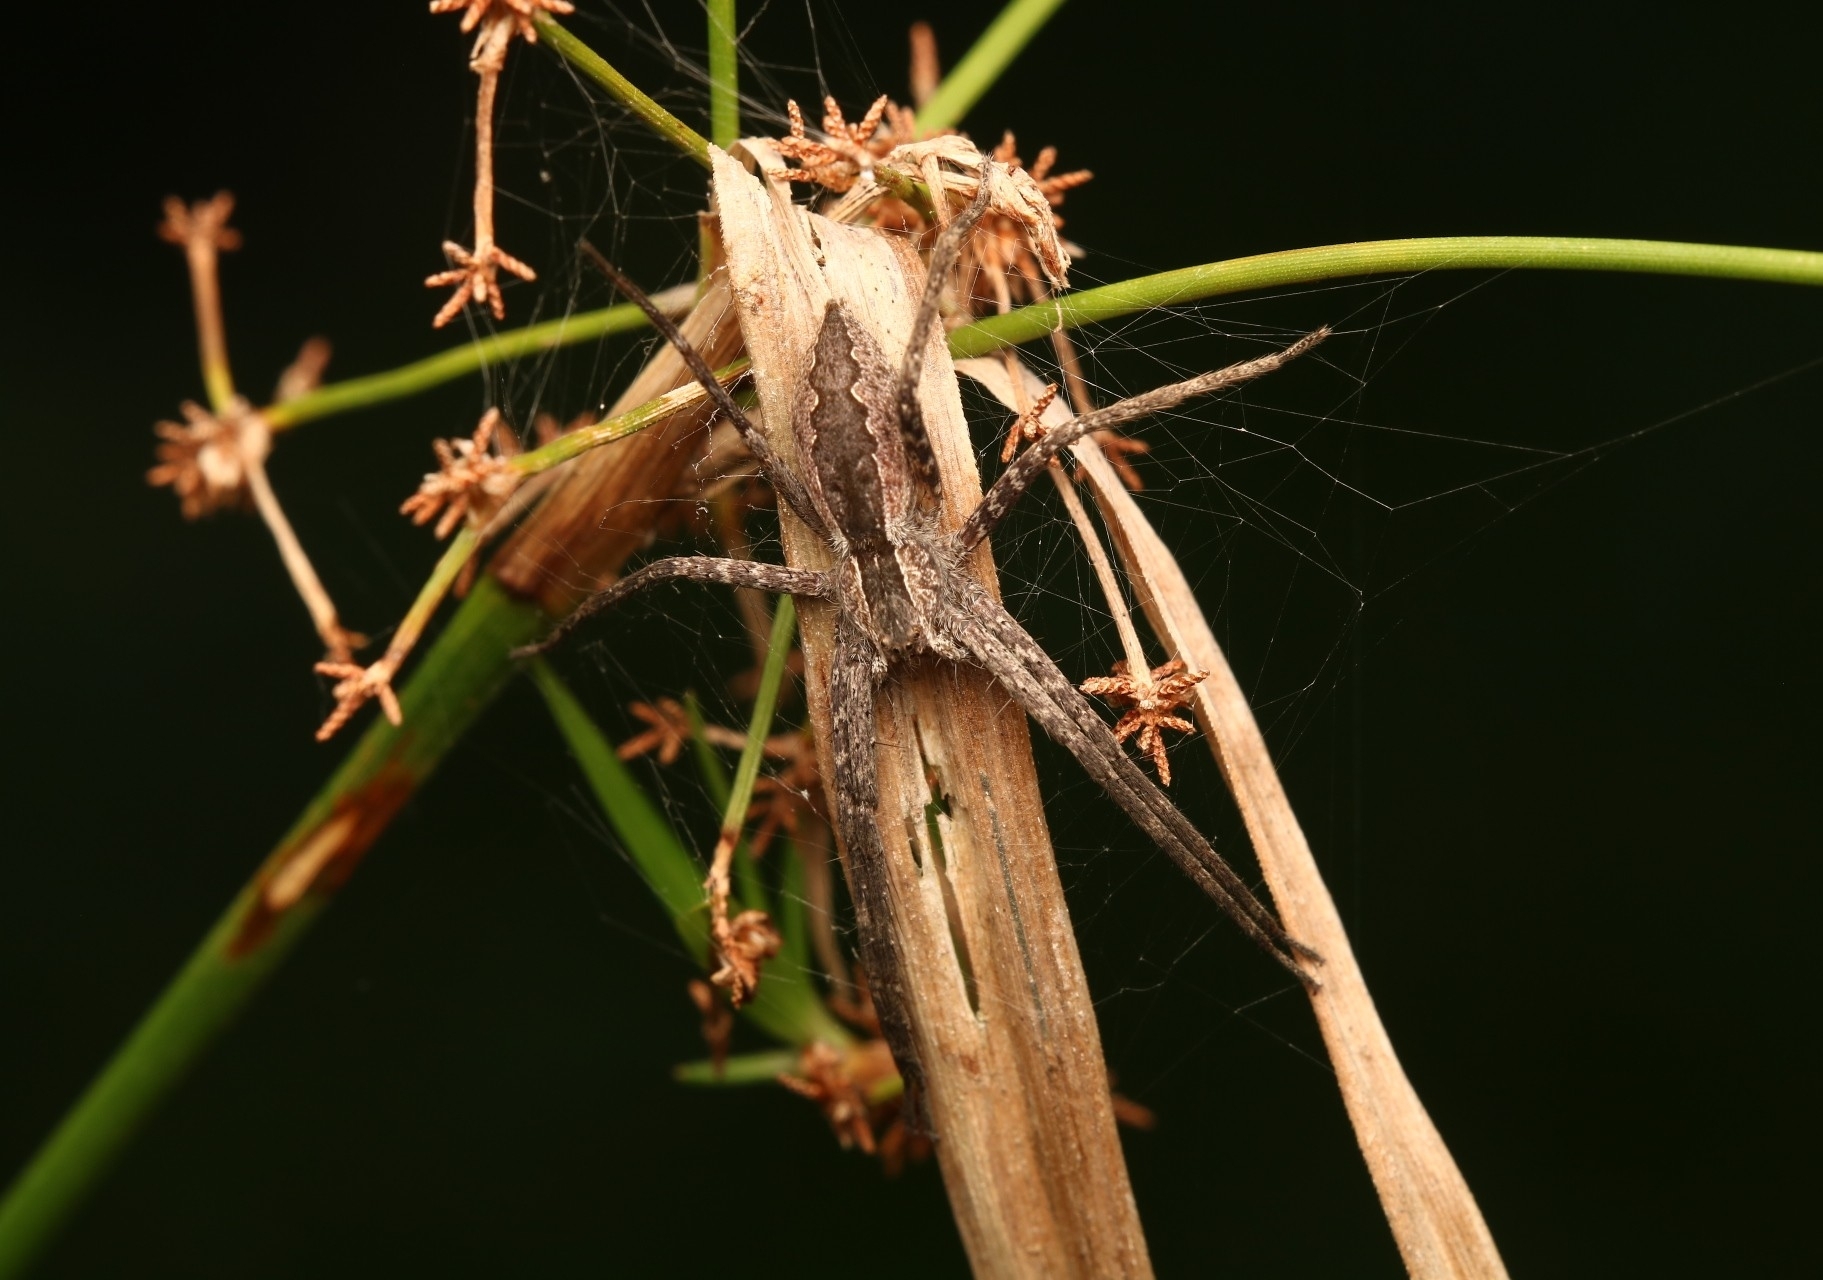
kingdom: Animalia
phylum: Arthropoda
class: Arachnida
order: Araneae
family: Pisauridae
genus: Pisaurina
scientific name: Pisaurina mira
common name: American nursery web spider
